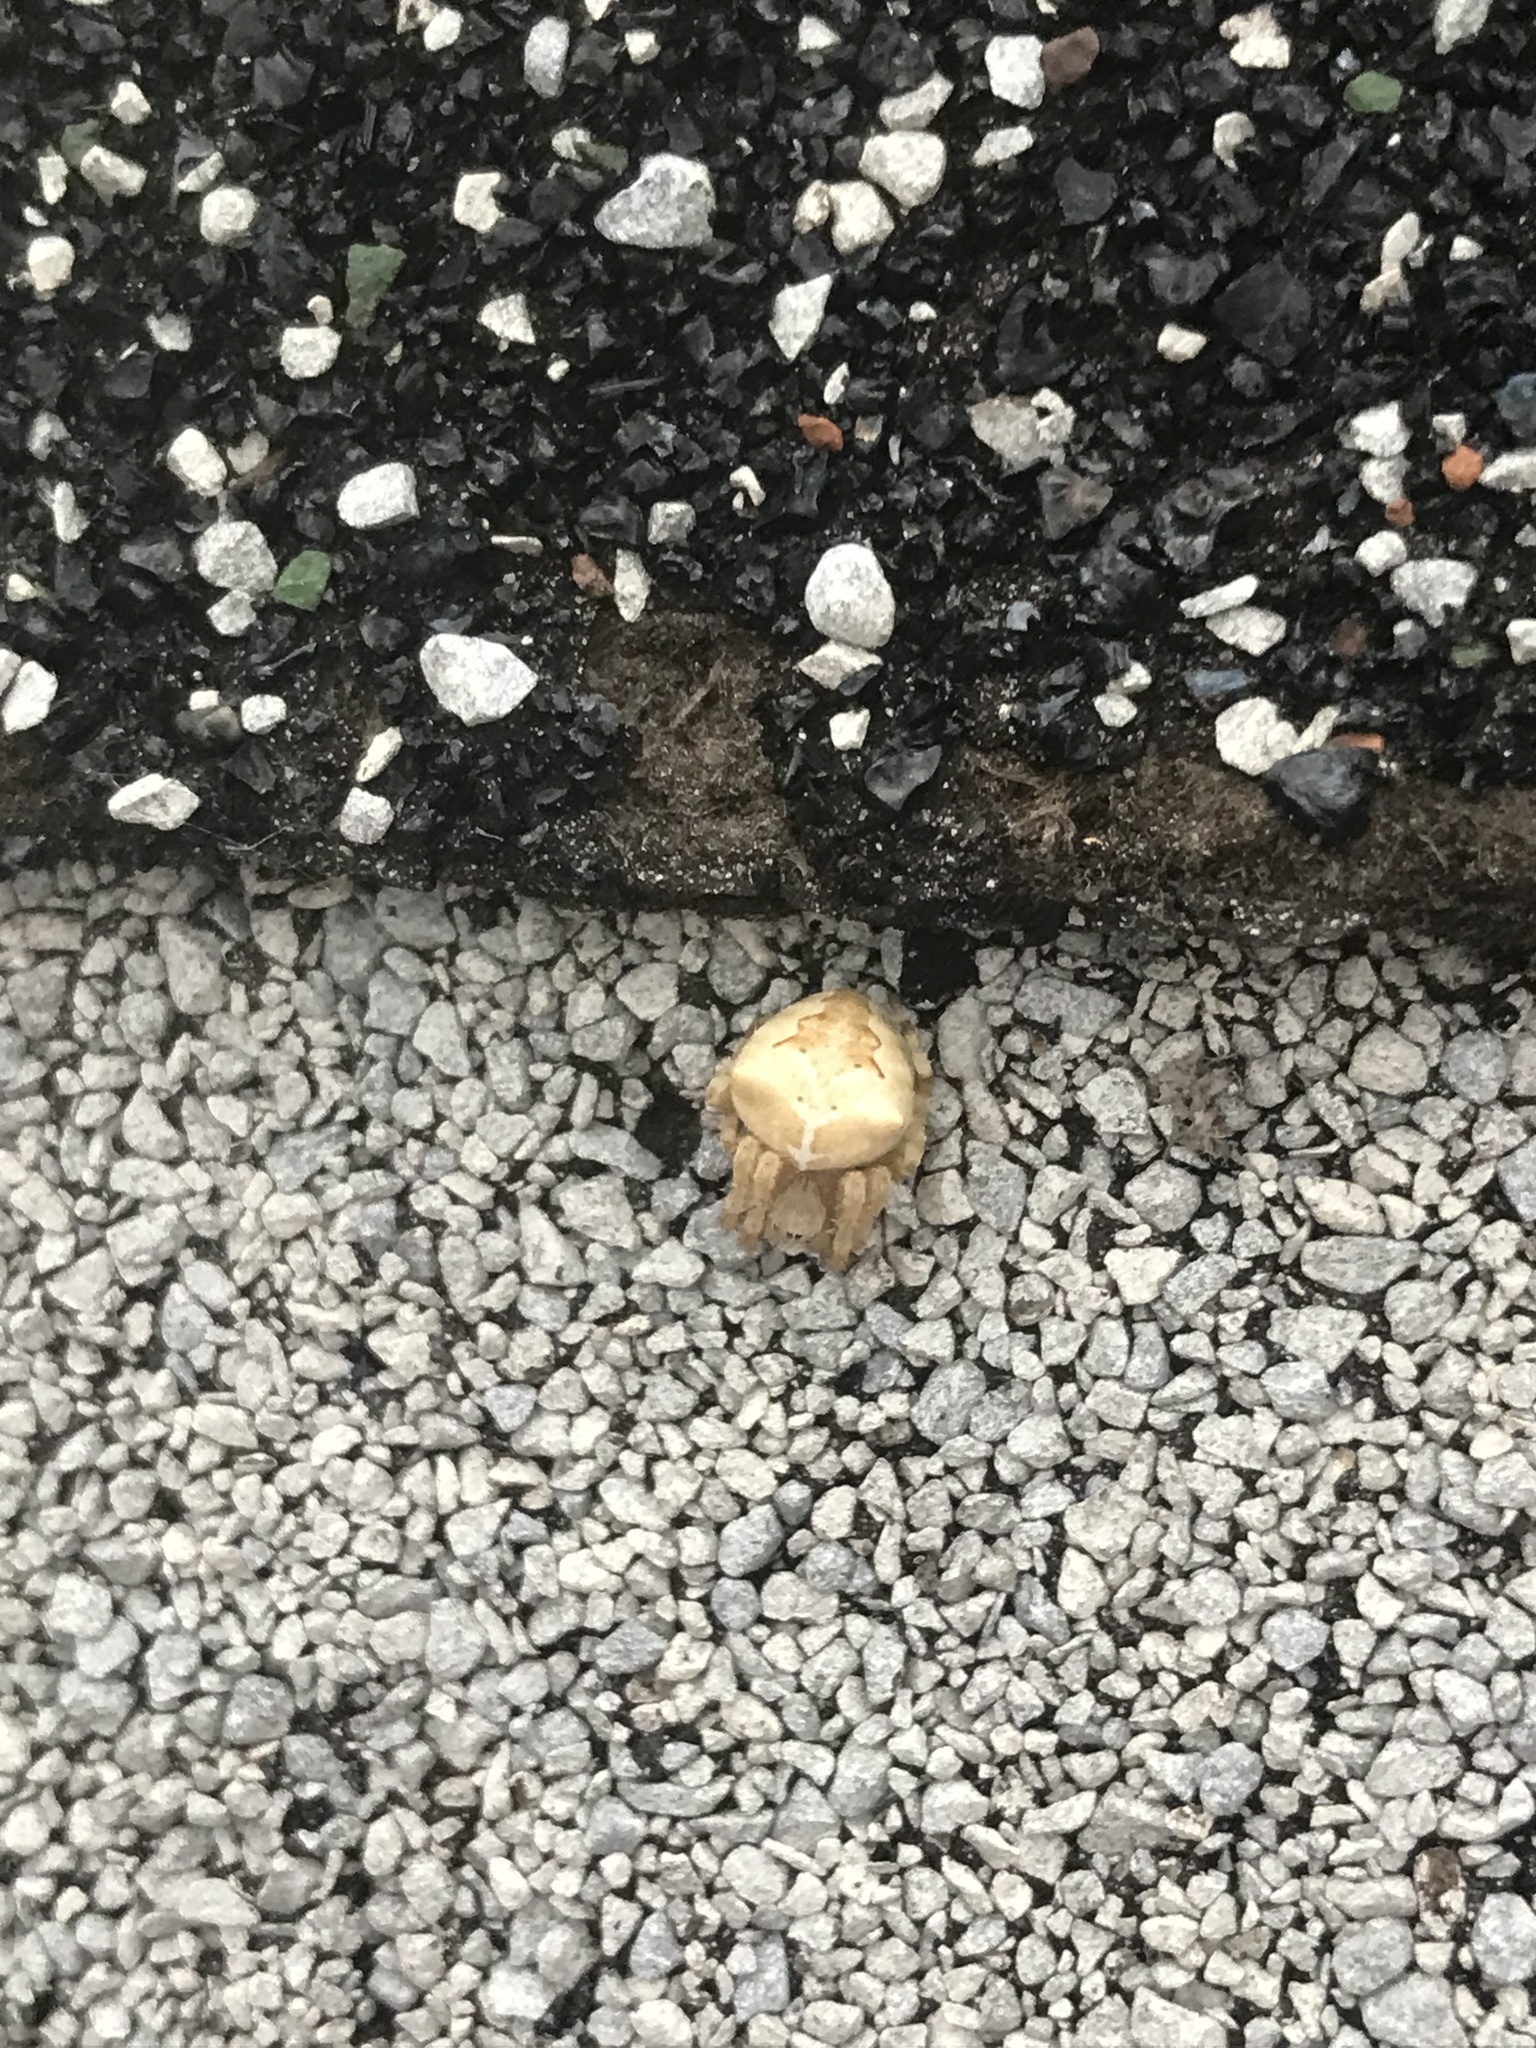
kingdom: Animalia
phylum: Arthropoda
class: Arachnida
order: Araneae
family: Araneidae
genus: Araneus
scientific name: Araneus gemmoides
